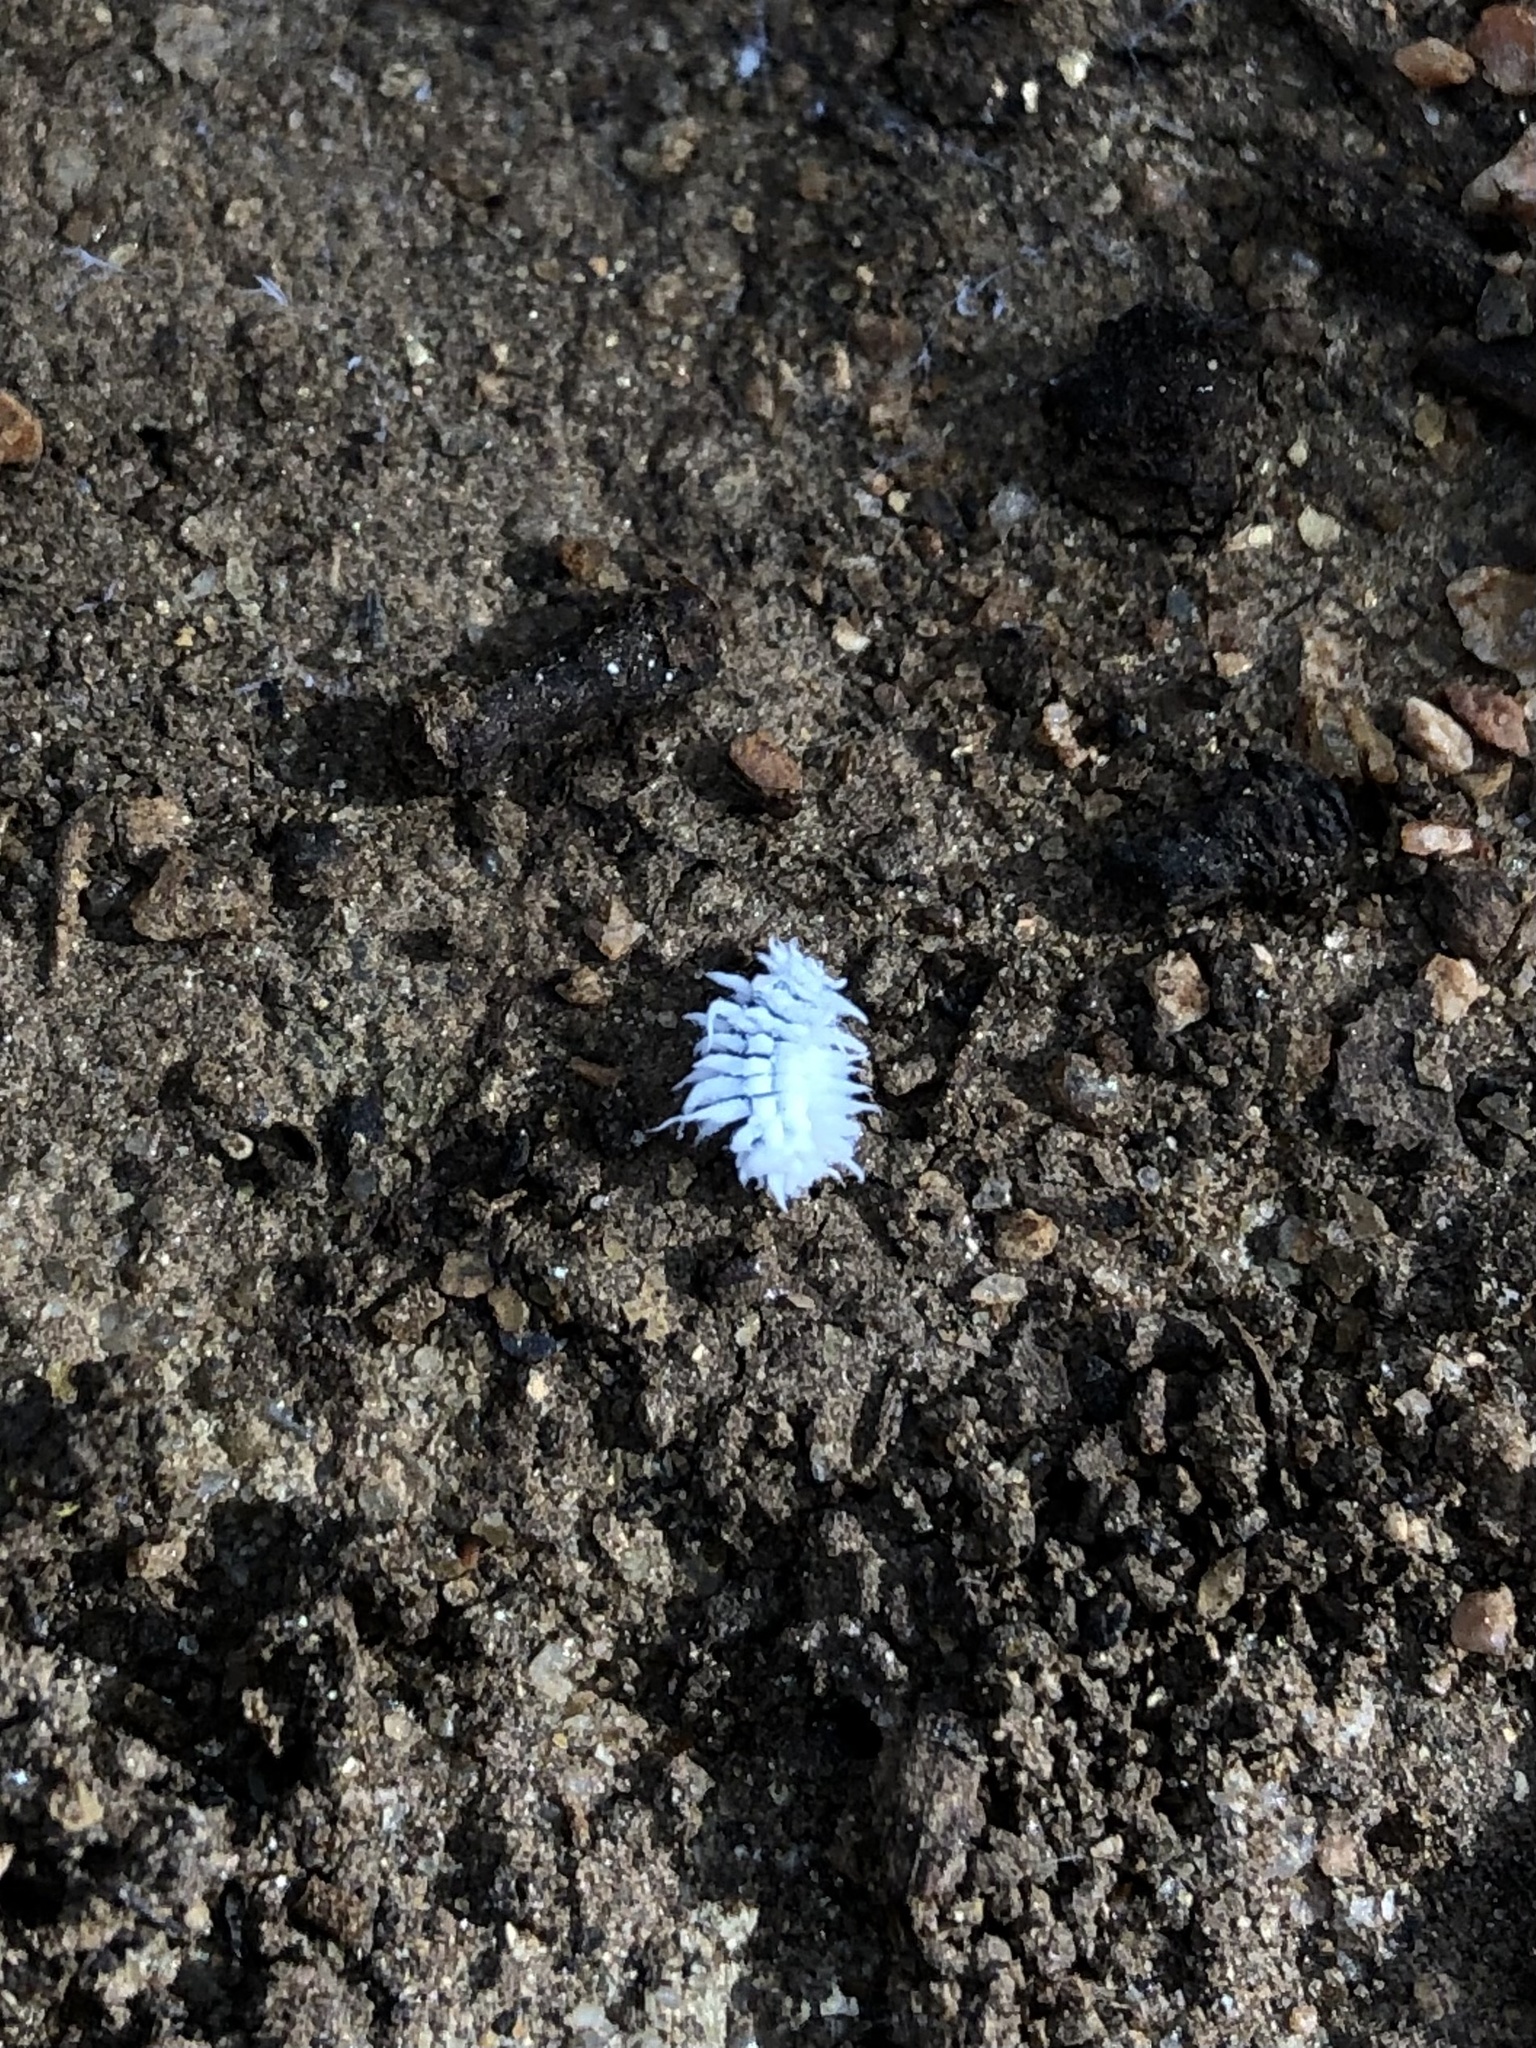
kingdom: Animalia
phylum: Arthropoda
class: Insecta
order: Coleoptera
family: Coccinellidae
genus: Cryptolaemus
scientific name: Cryptolaemus montrouzieri
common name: Mealybug destroyer
